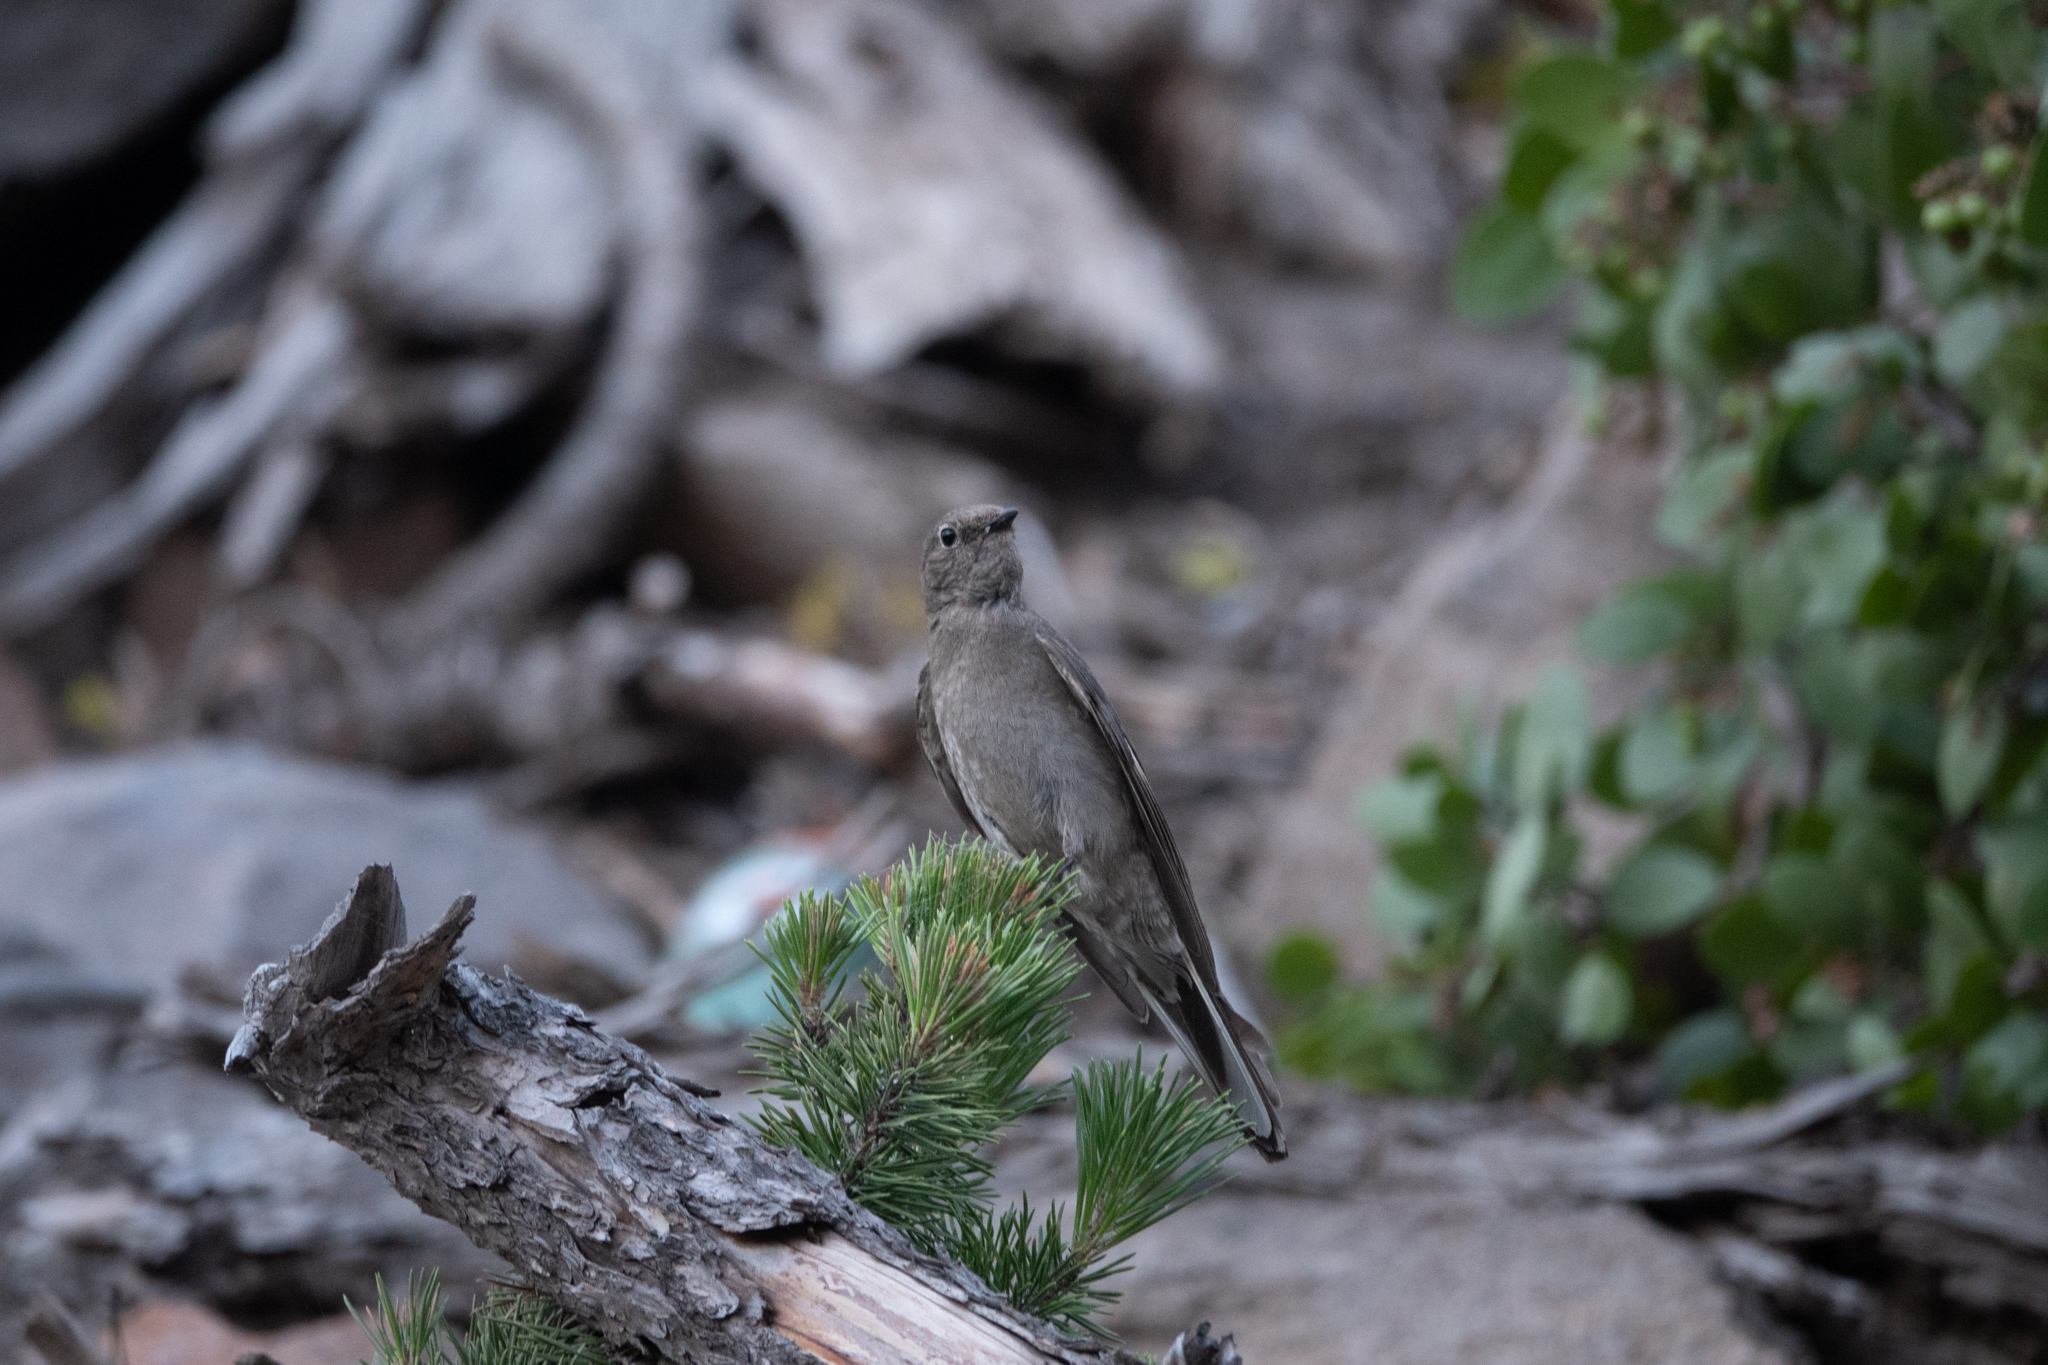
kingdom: Animalia
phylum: Chordata
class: Aves
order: Passeriformes
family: Turdidae
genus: Myadestes
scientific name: Myadestes townsendi
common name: Townsend's solitaire
